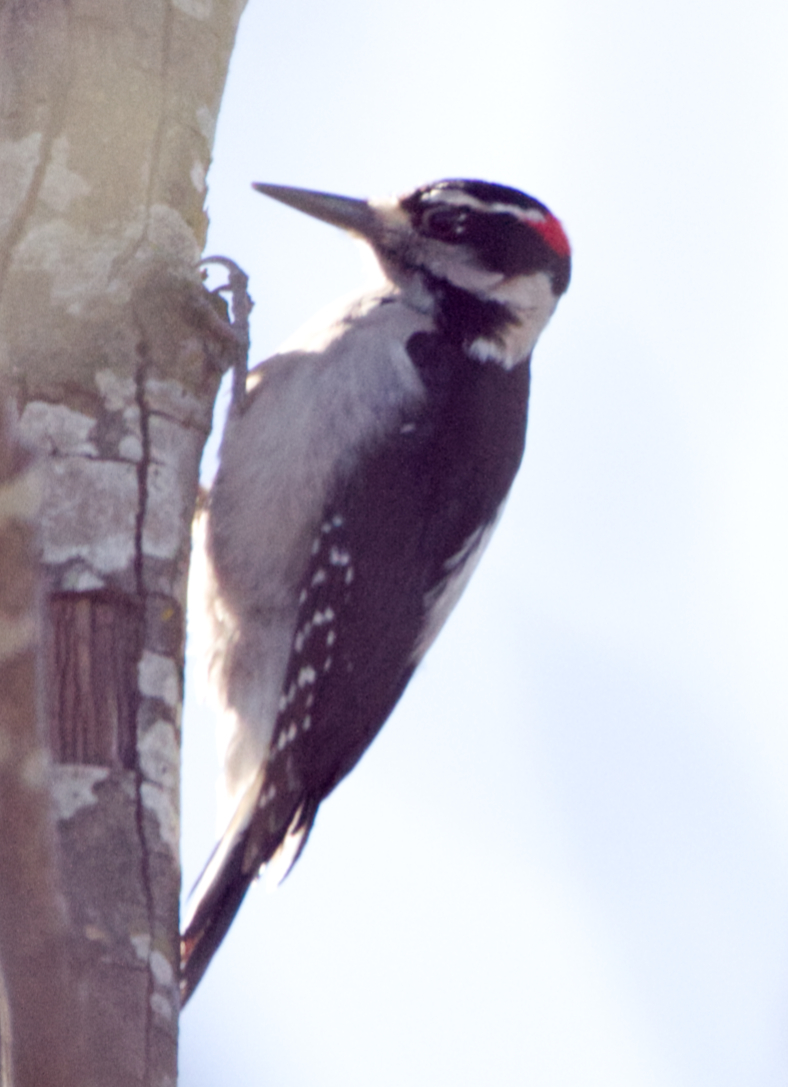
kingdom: Animalia
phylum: Chordata
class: Aves
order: Piciformes
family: Picidae
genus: Leuconotopicus
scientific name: Leuconotopicus villosus
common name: Hairy woodpecker
